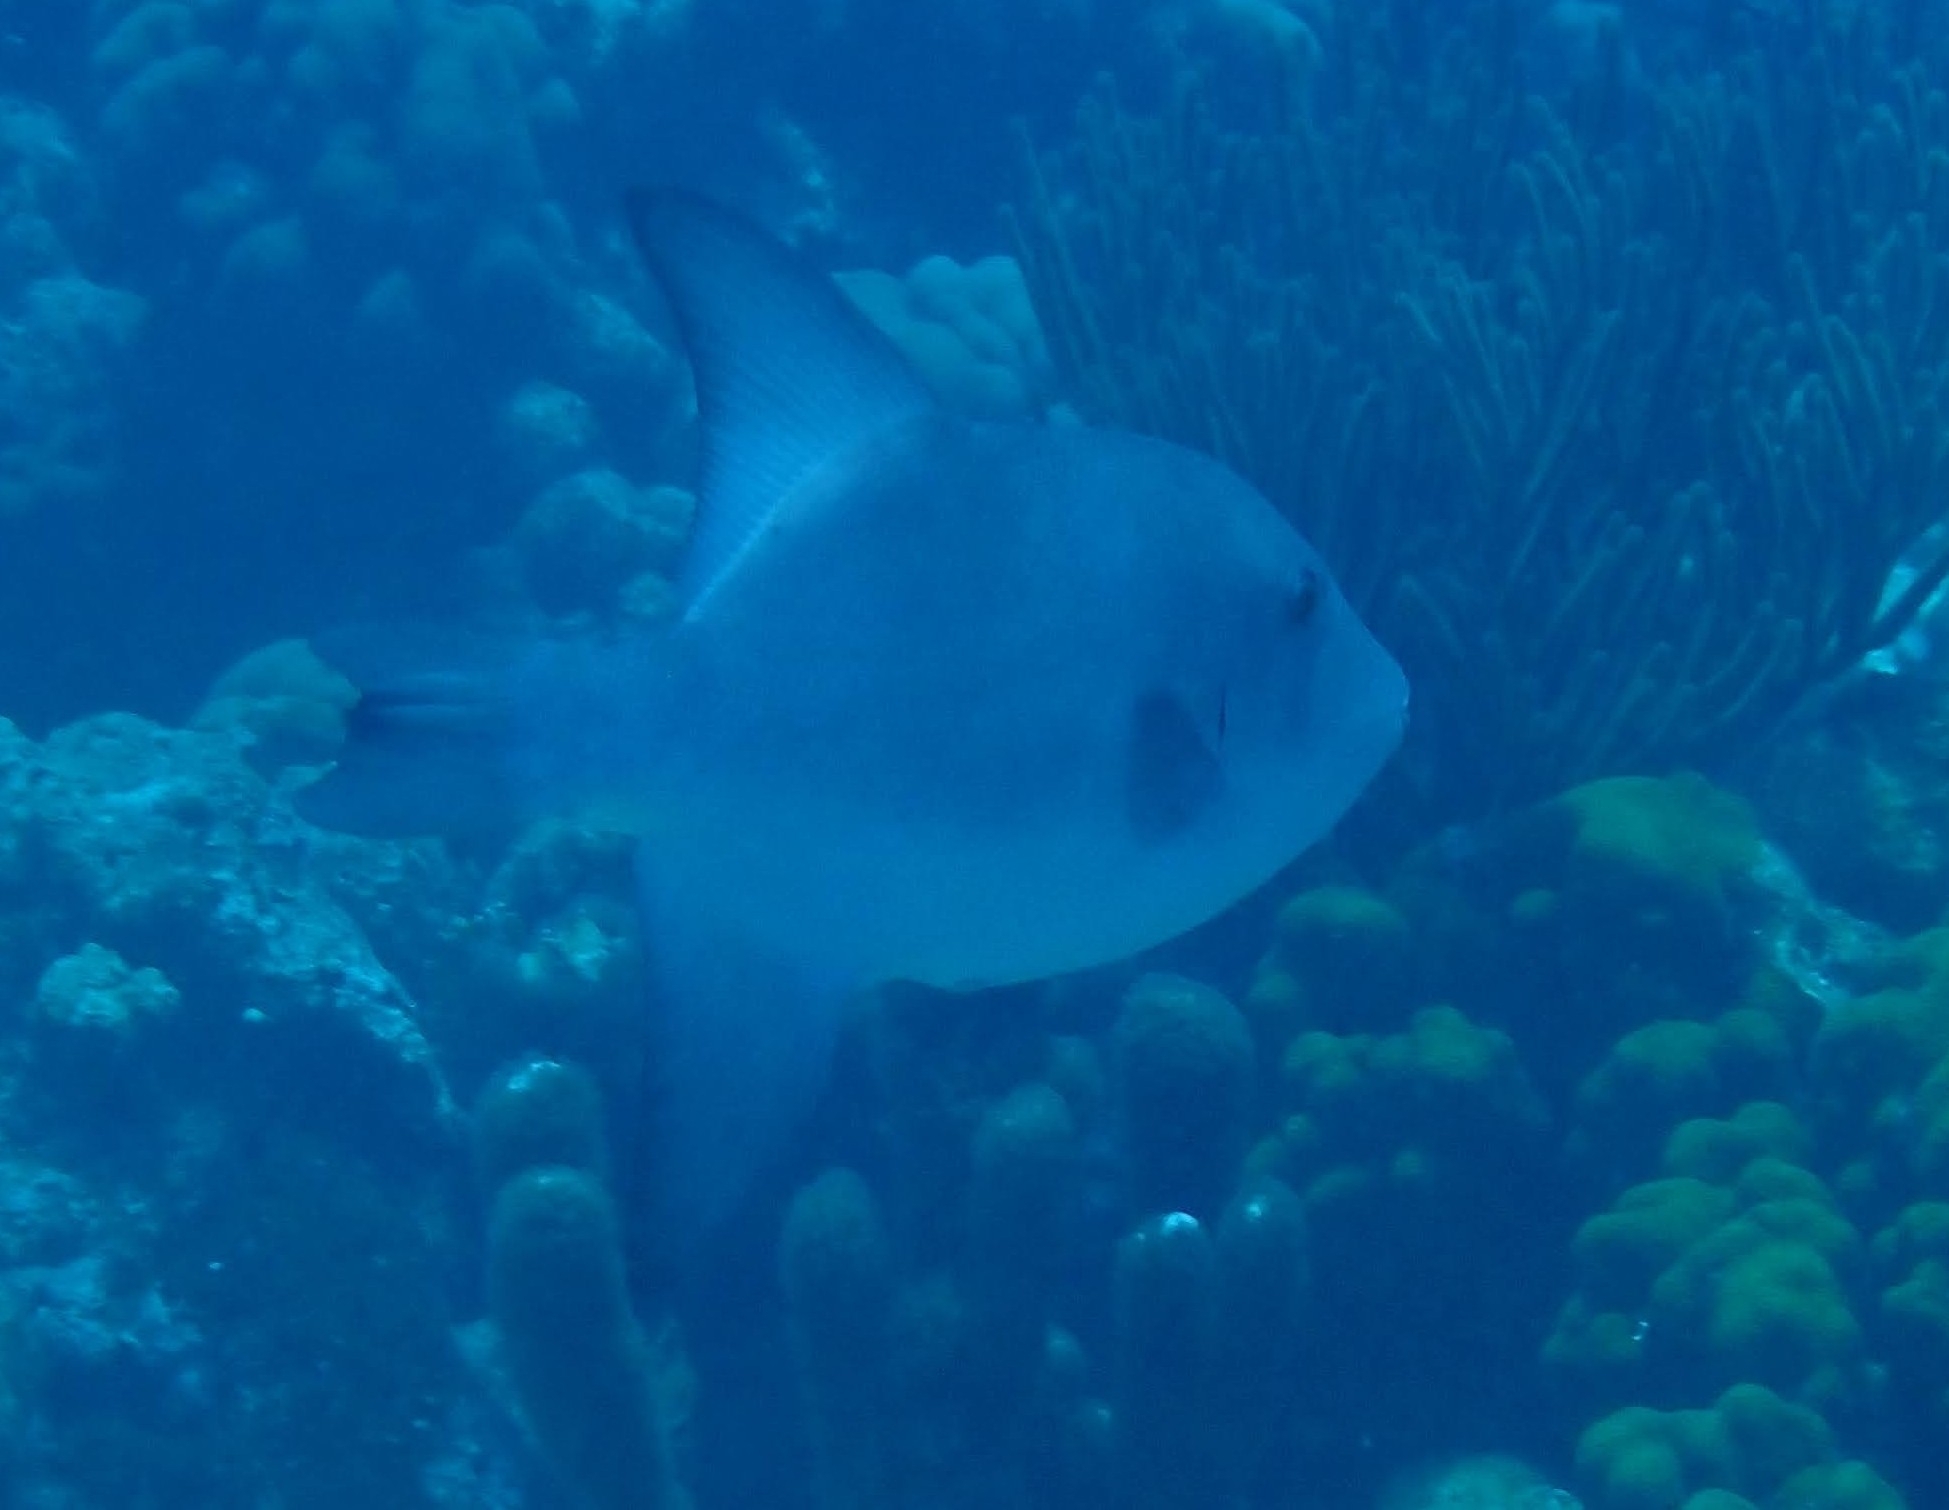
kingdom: Animalia
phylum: Chordata
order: Tetraodontiformes
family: Balistidae
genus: Canthidermis
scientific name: Canthidermis sufflamen
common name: Ocean triggerfish
